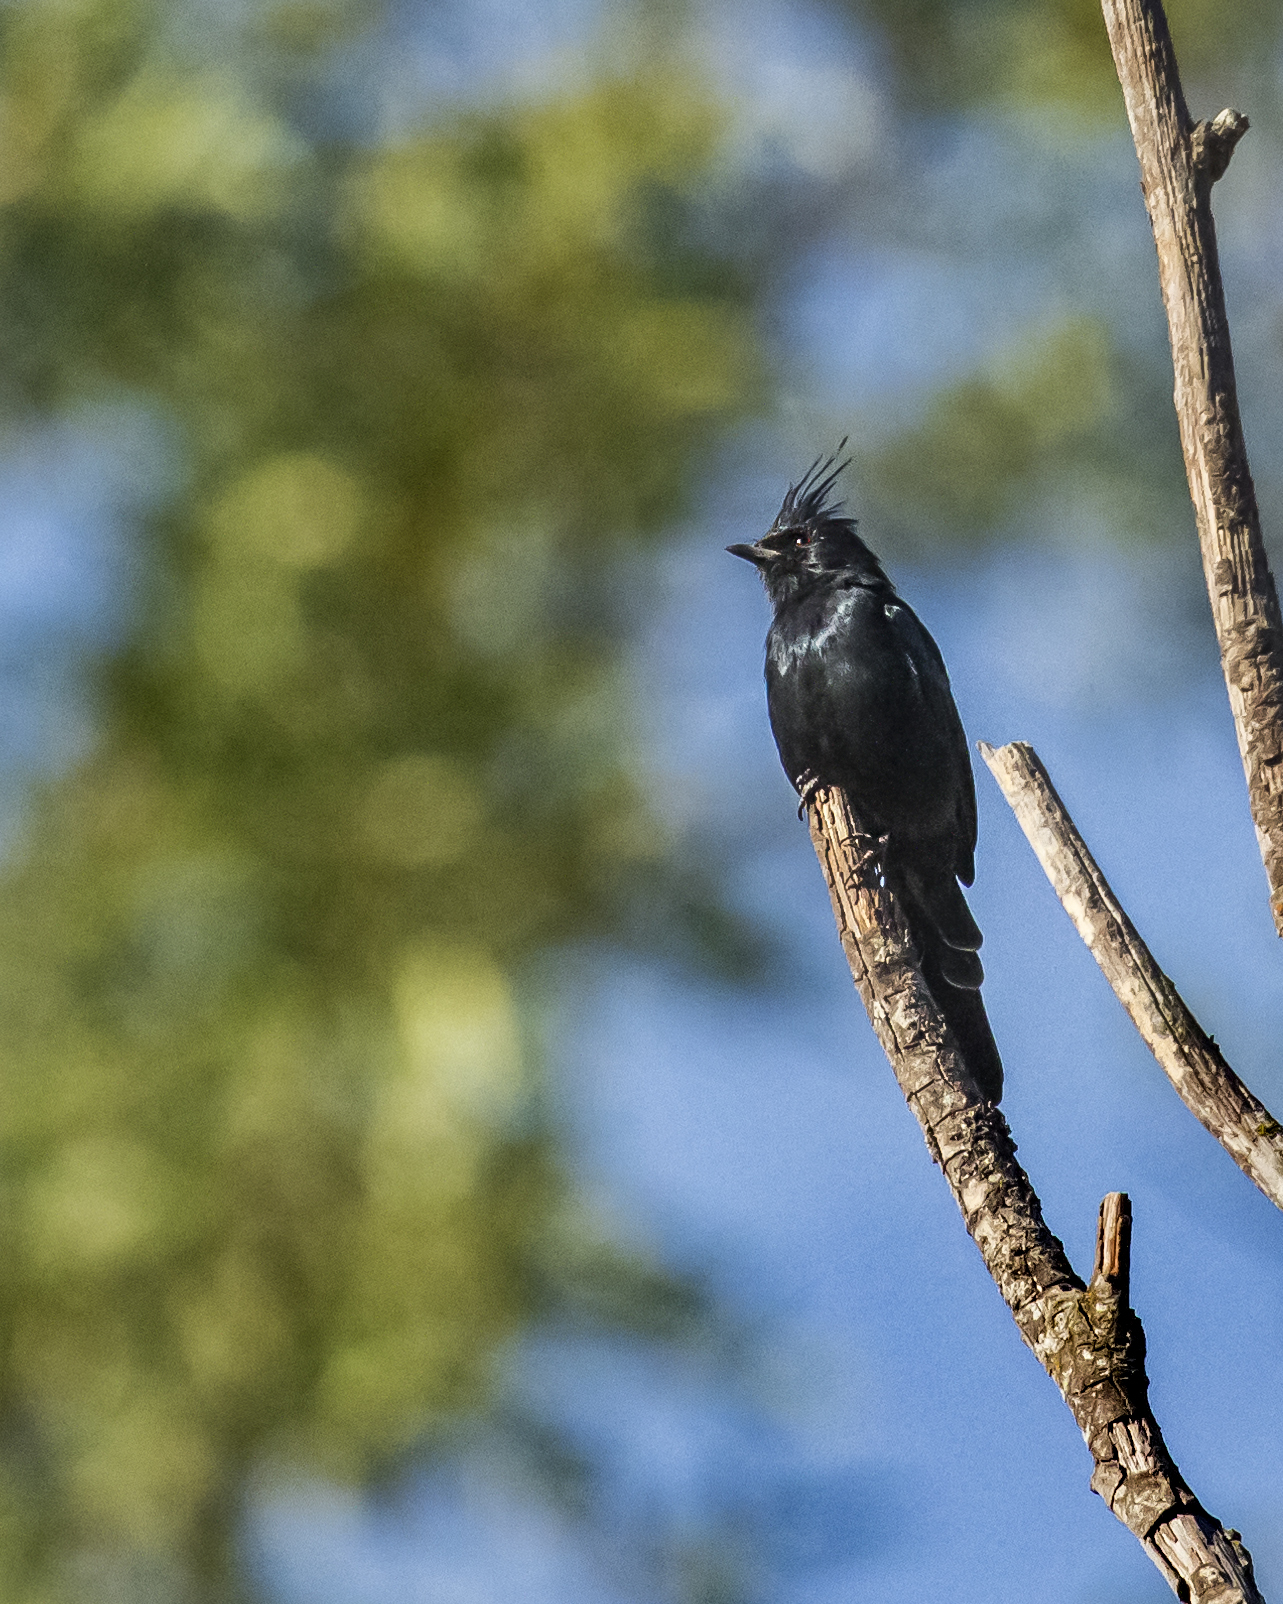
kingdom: Animalia
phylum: Chordata
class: Aves
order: Passeriformes
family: Ptilogonatidae
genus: Phainopepla
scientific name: Phainopepla nitens
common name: Phainopepla
